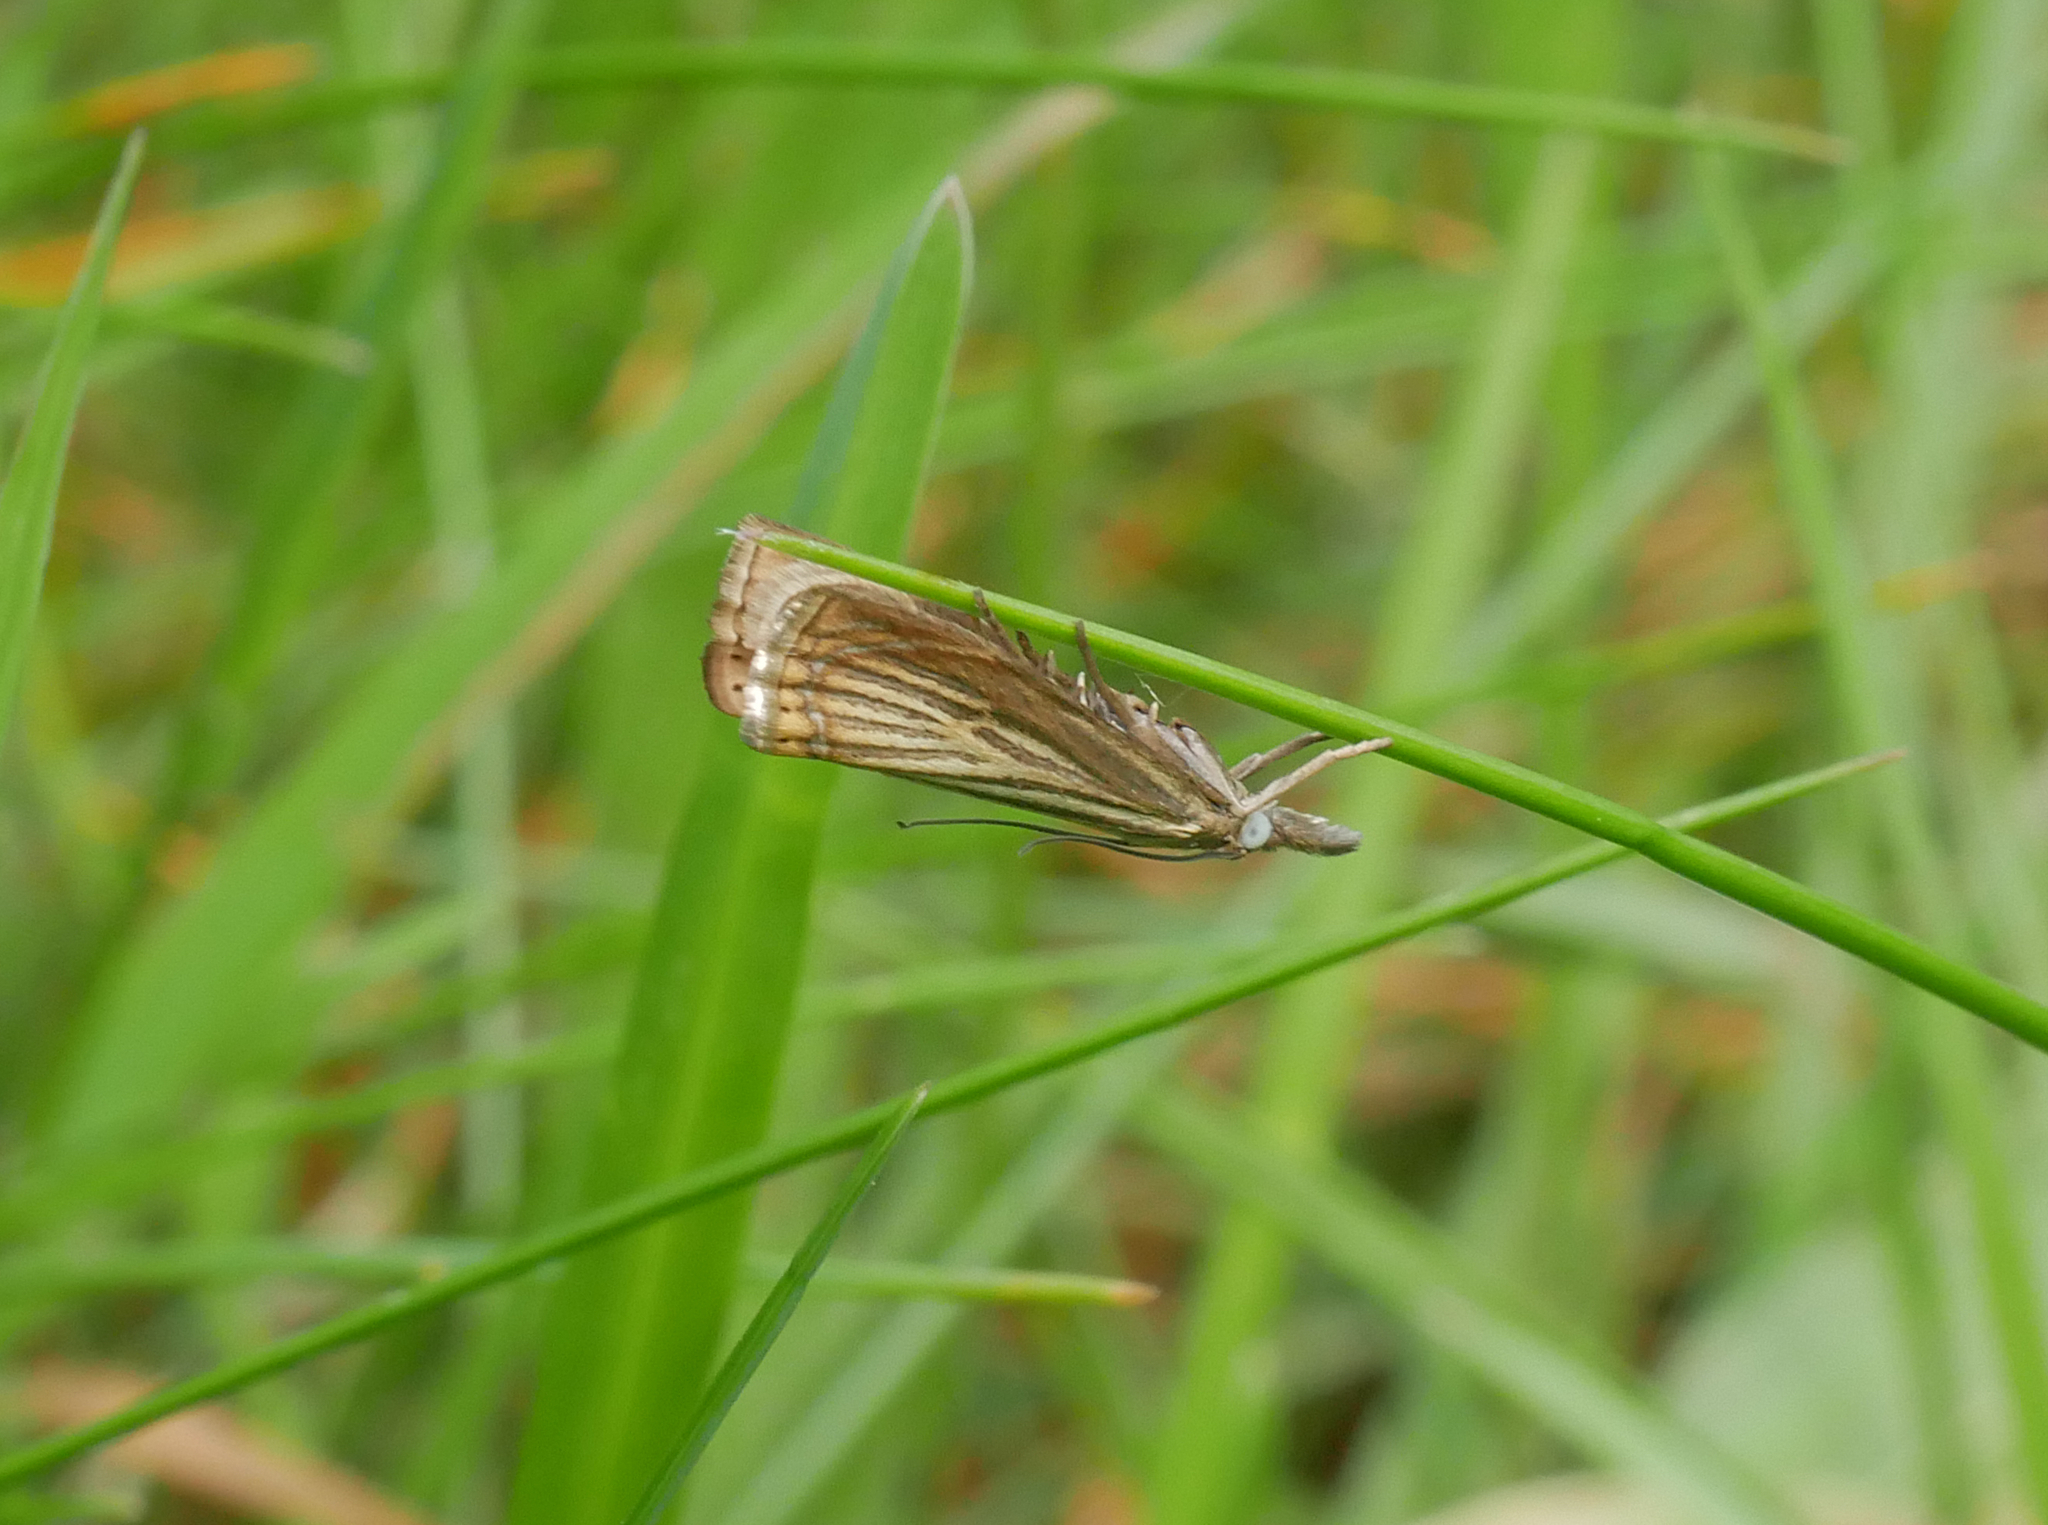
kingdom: Animalia
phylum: Arthropoda
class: Insecta
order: Lepidoptera
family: Crambidae
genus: Chrysoteuchia
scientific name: Chrysoteuchia culmella
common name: Garden grass-veneer
